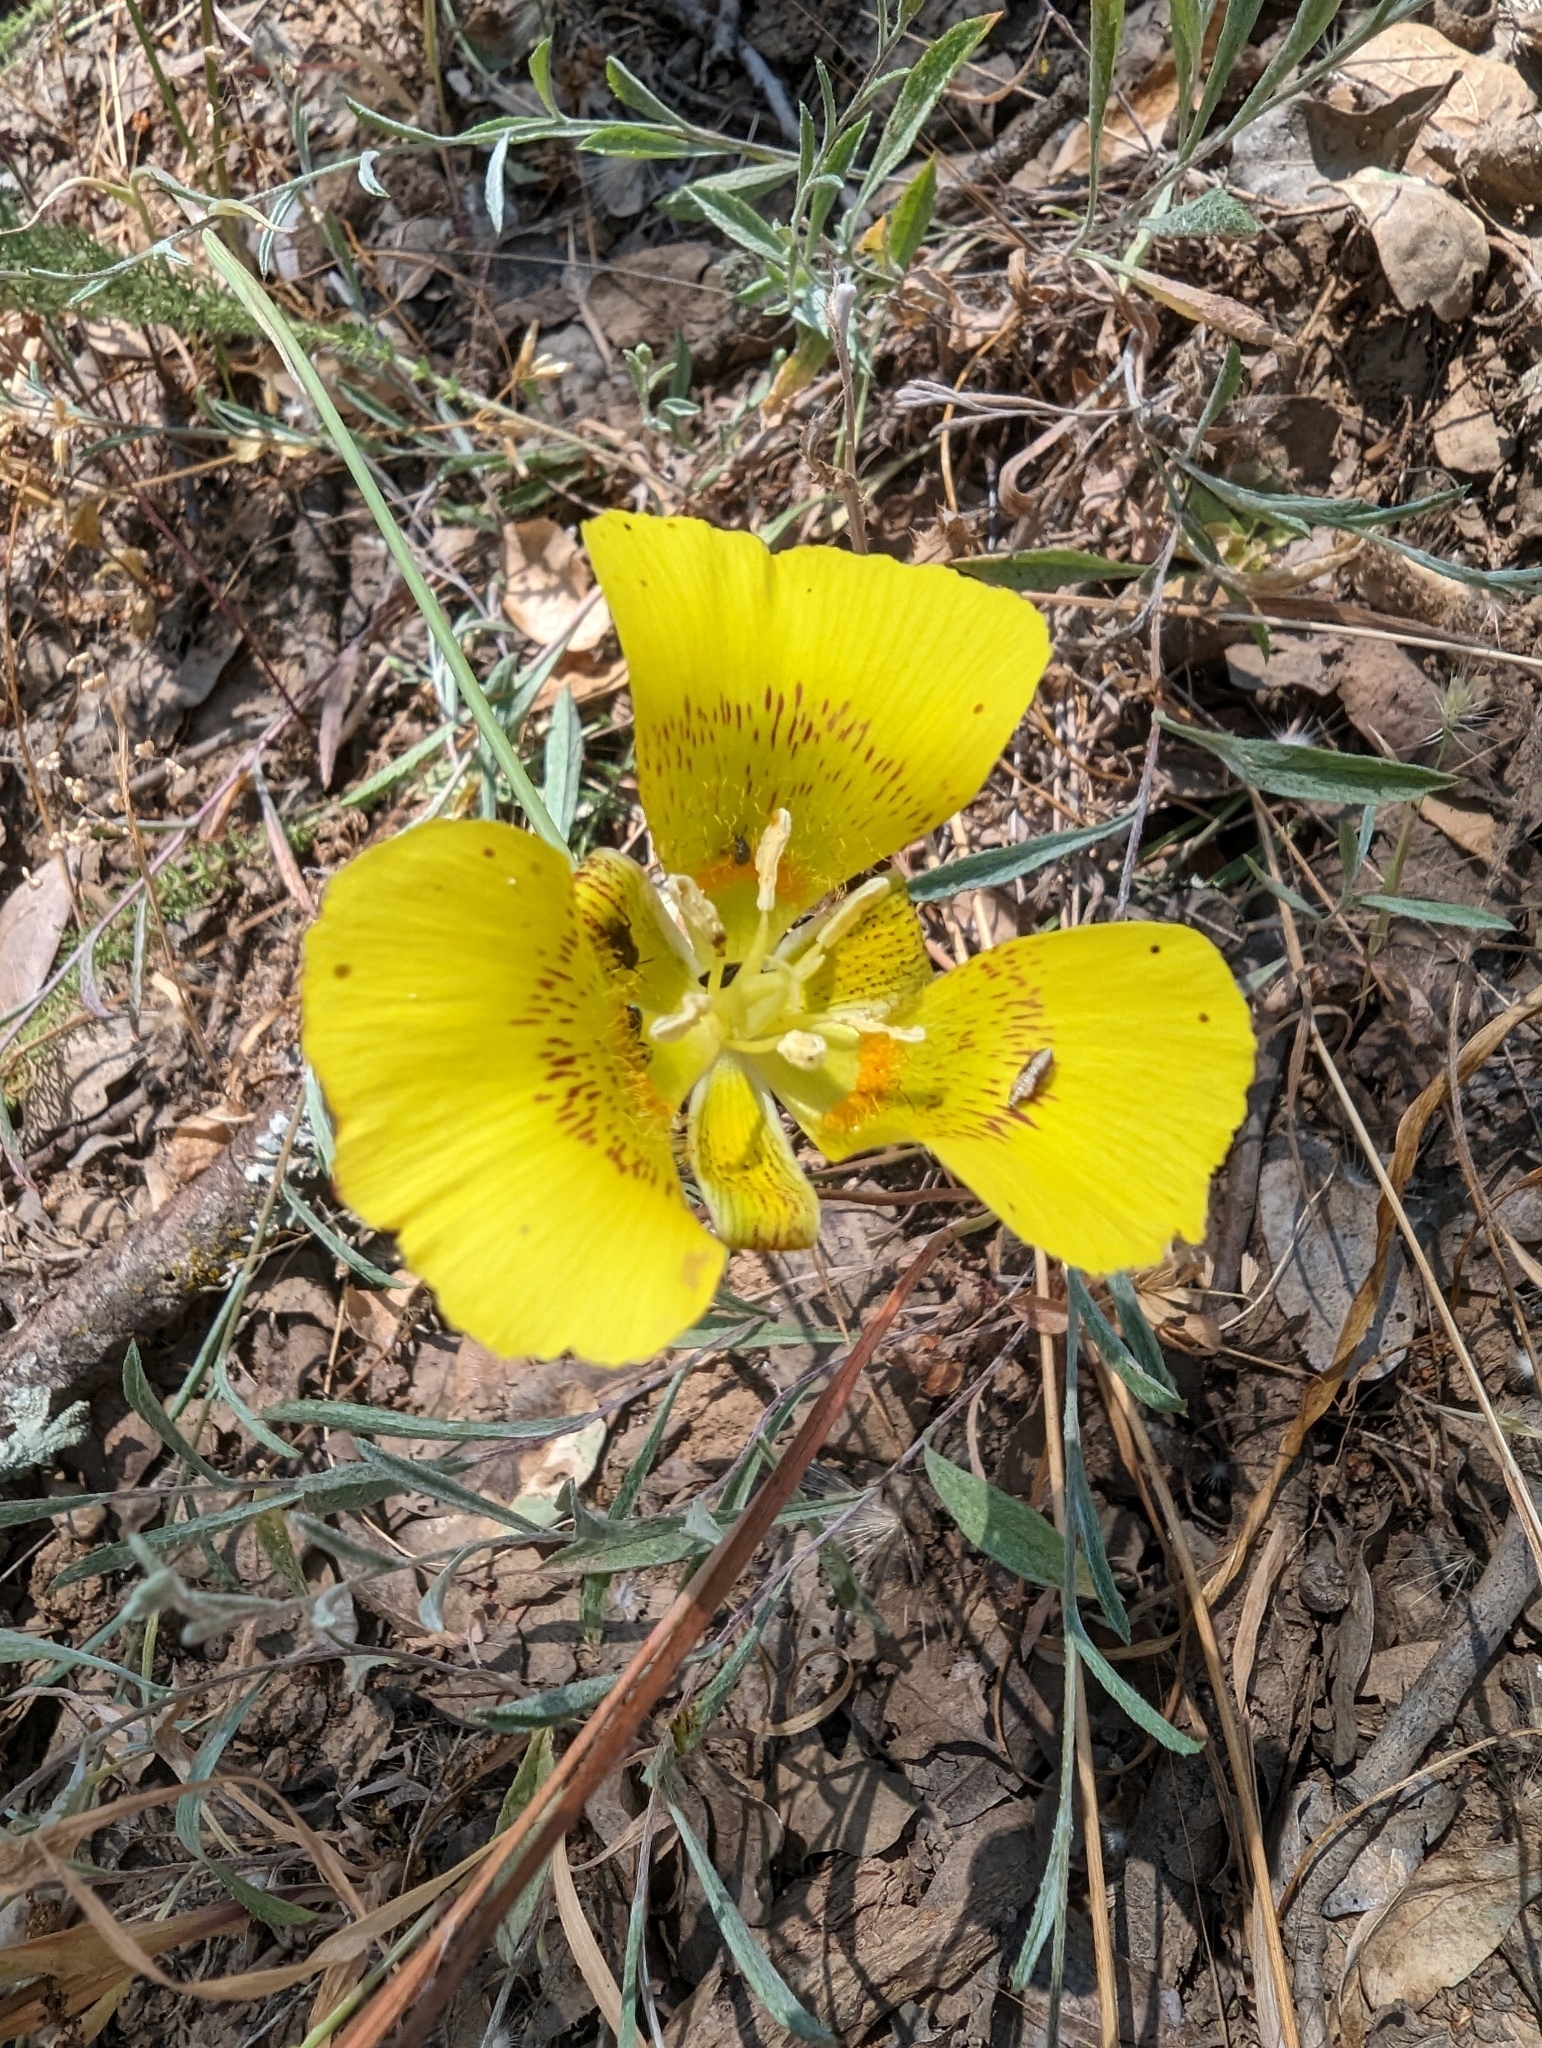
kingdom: Plantae
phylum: Tracheophyta
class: Liliopsida
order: Liliales
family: Liliaceae
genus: Calochortus
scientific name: Calochortus luteus
